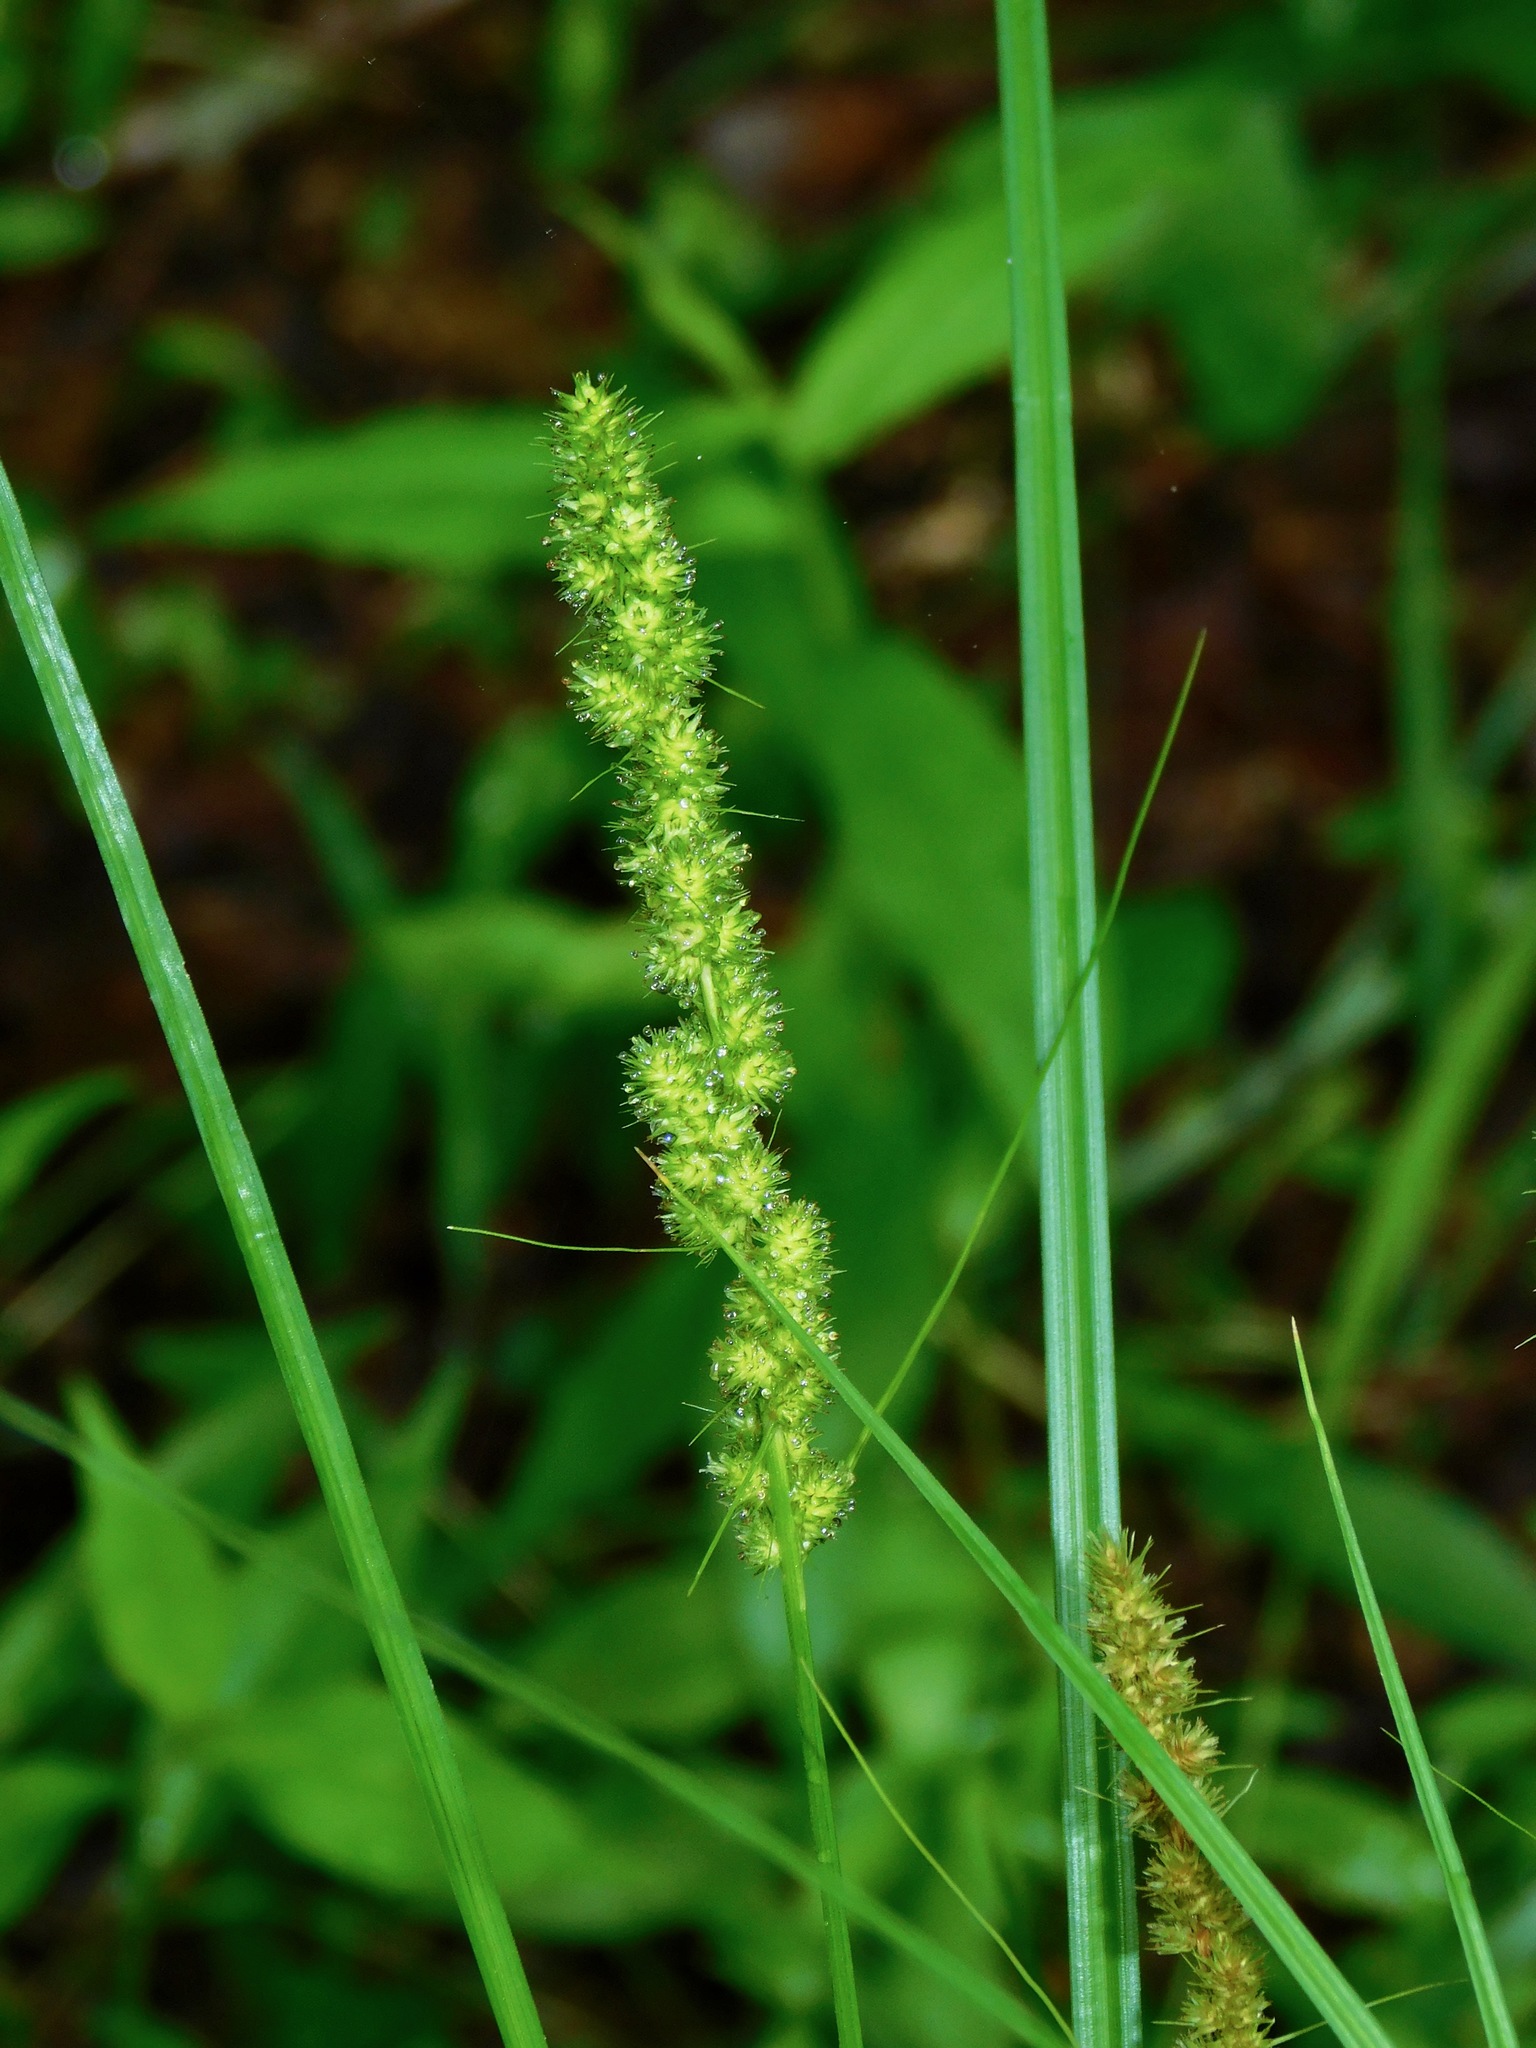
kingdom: Plantae
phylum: Tracheophyta
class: Liliopsida
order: Poales
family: Cyperaceae
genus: Carex
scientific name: Carex annectens
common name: Large fox sedge
